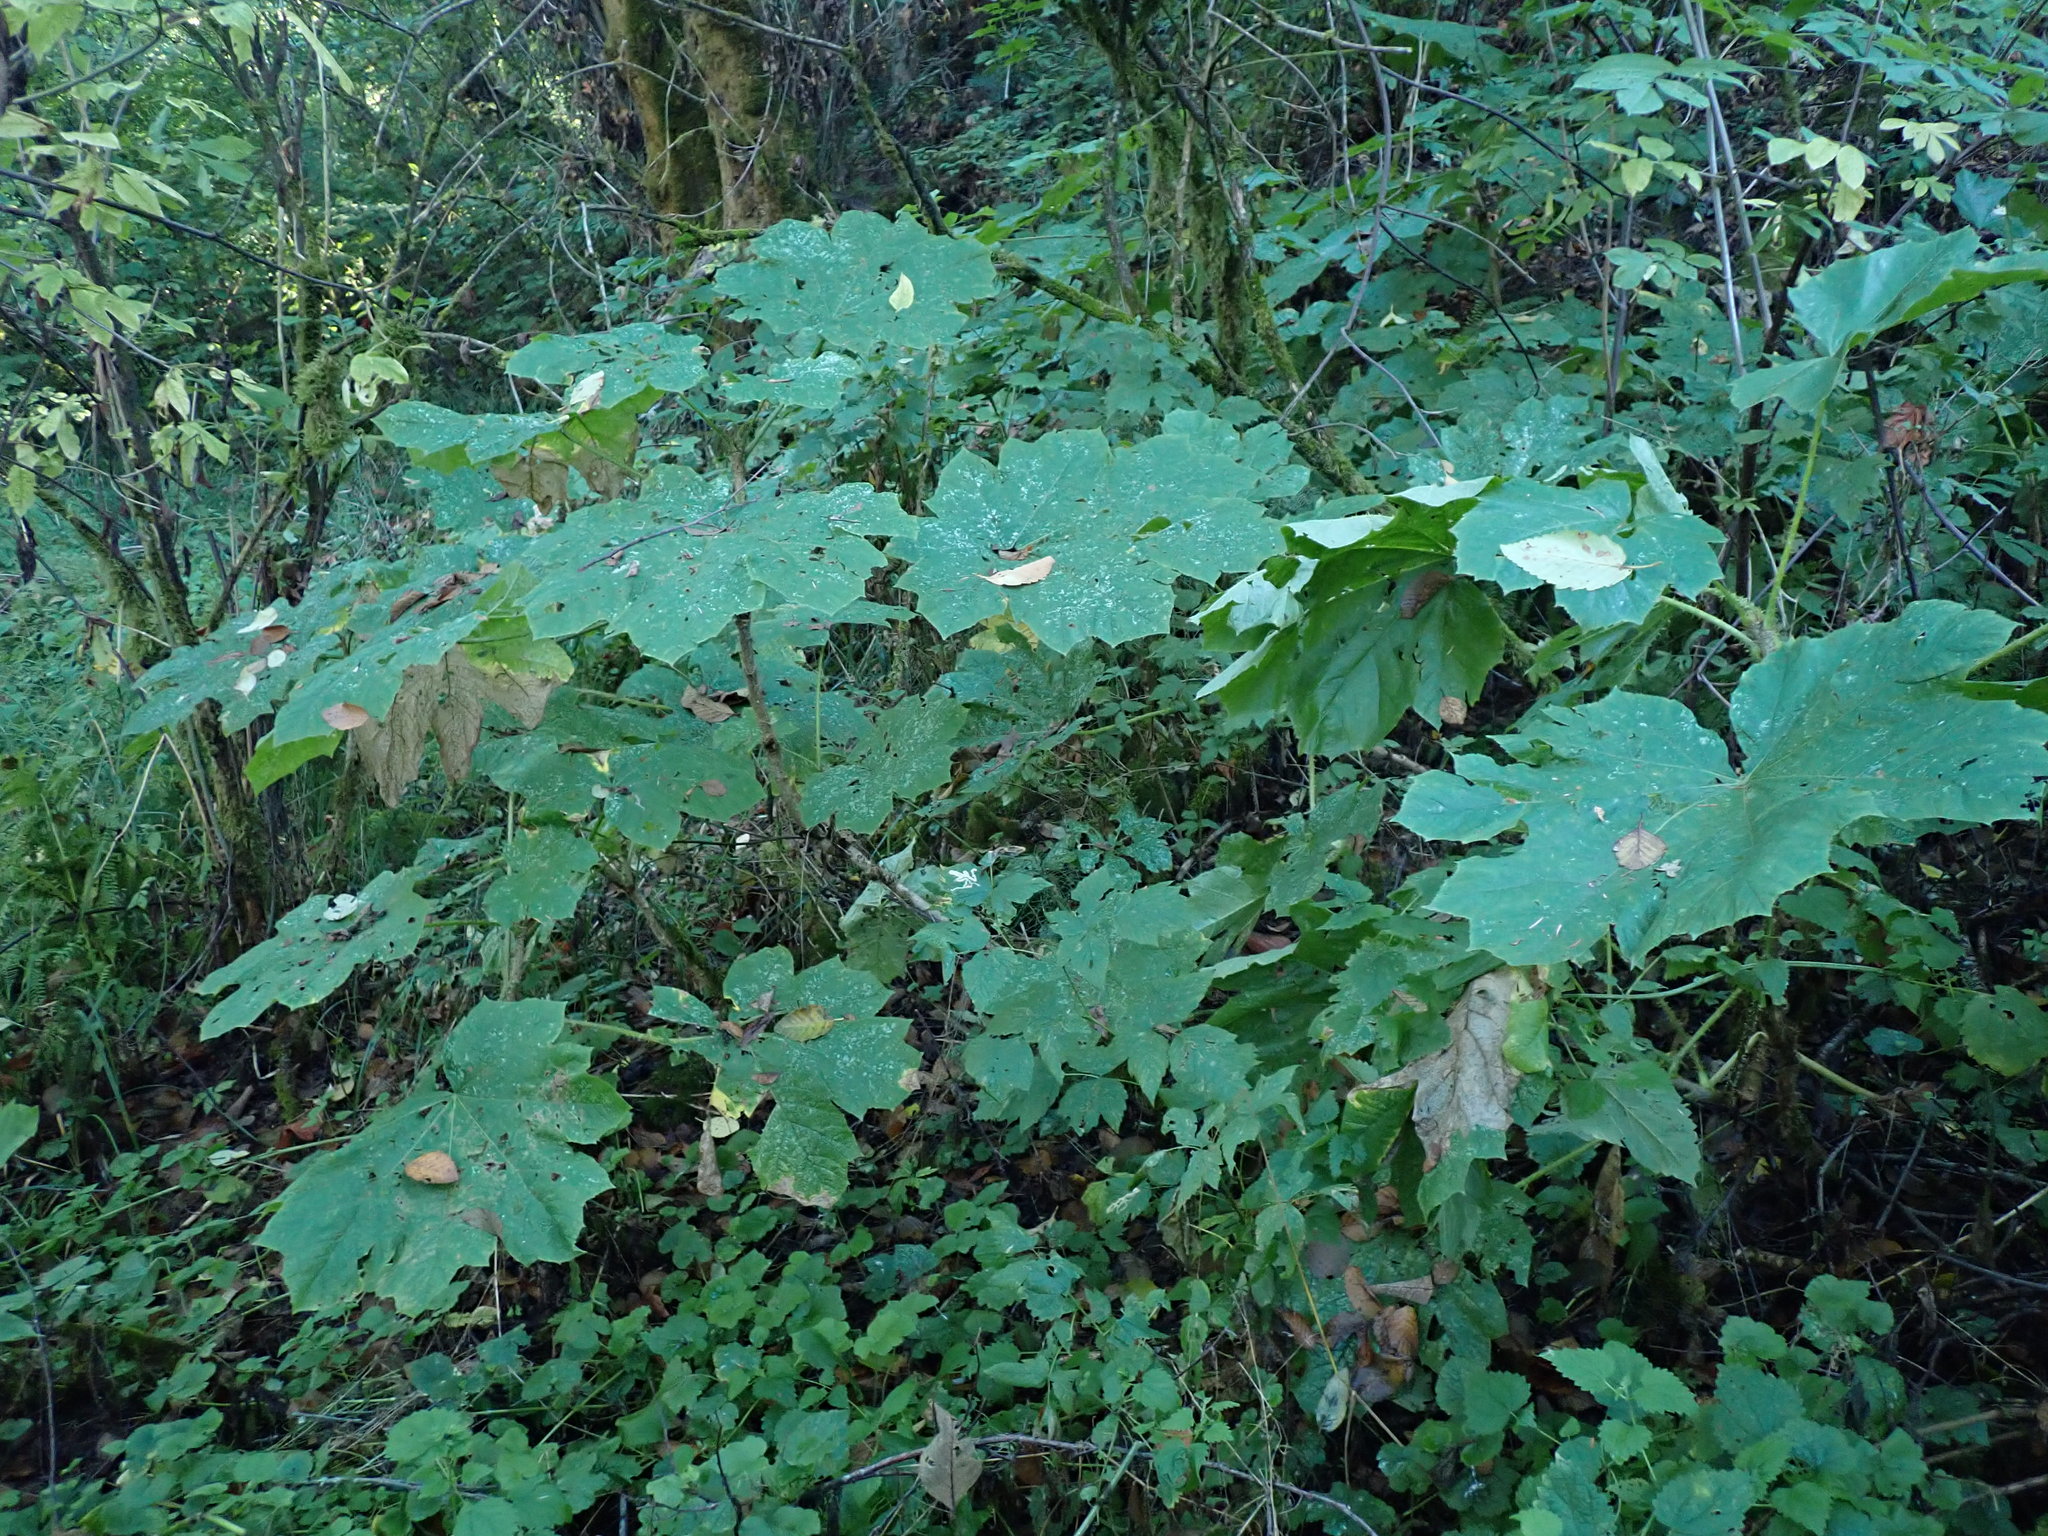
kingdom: Plantae
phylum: Tracheophyta
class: Magnoliopsida
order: Apiales
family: Araliaceae
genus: Oplopanax
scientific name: Oplopanax horridus
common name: Devil's walking-stick
